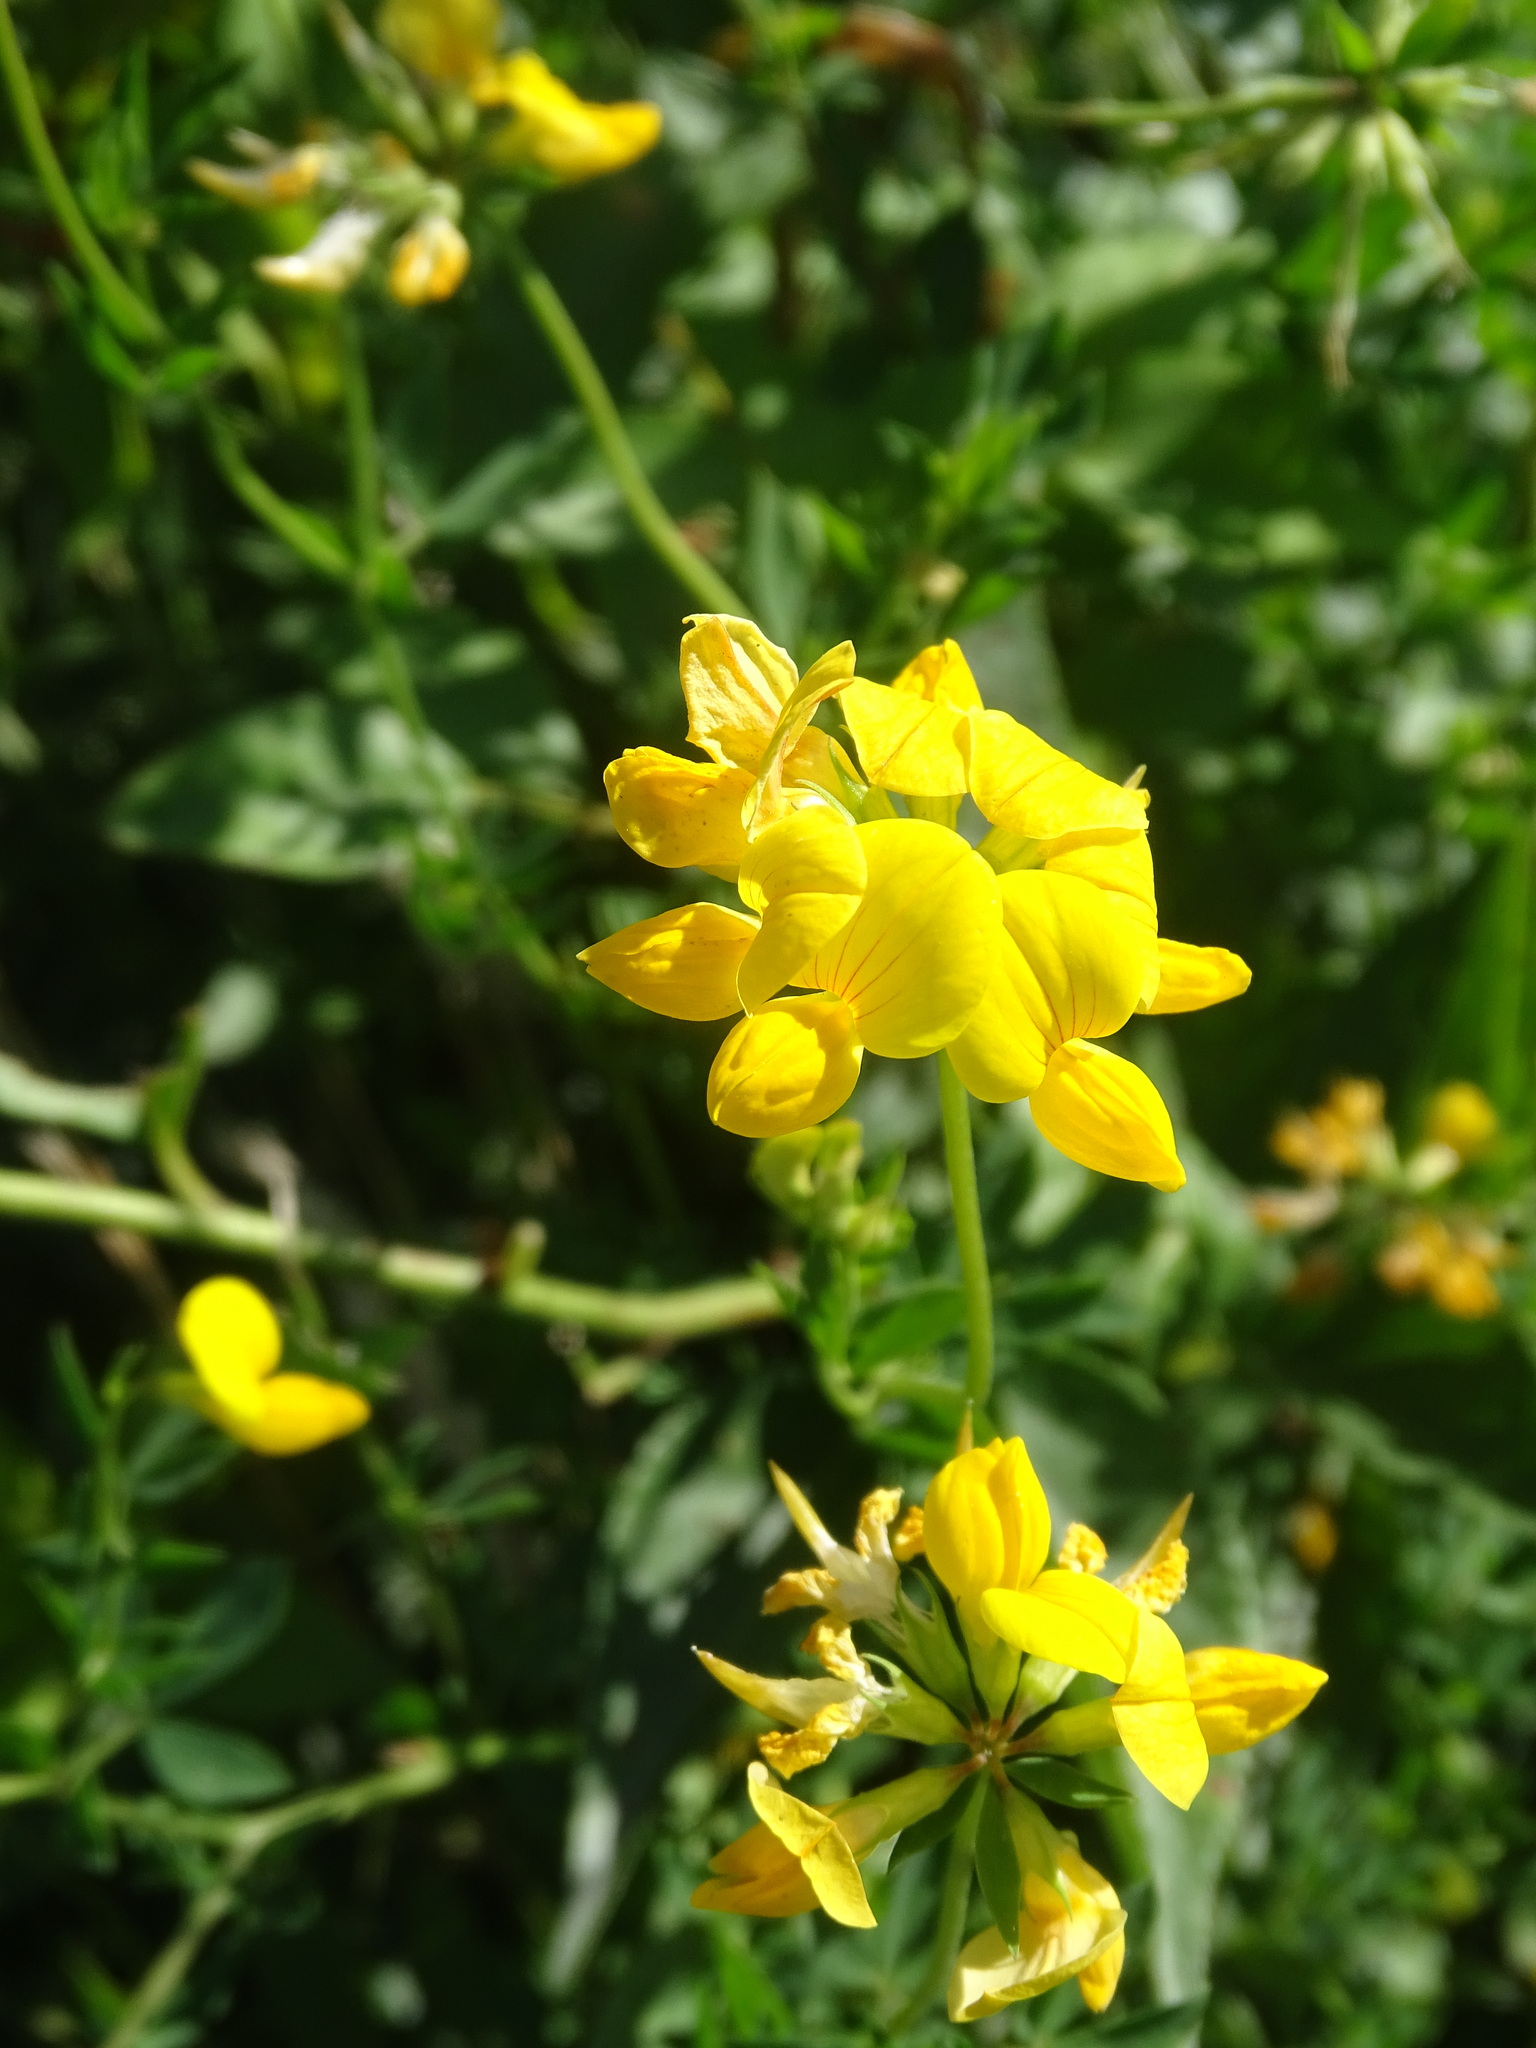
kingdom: Plantae
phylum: Tracheophyta
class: Magnoliopsida
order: Fabales
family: Fabaceae
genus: Lotus
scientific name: Lotus corniculatus
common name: Common bird's-foot-trefoil
